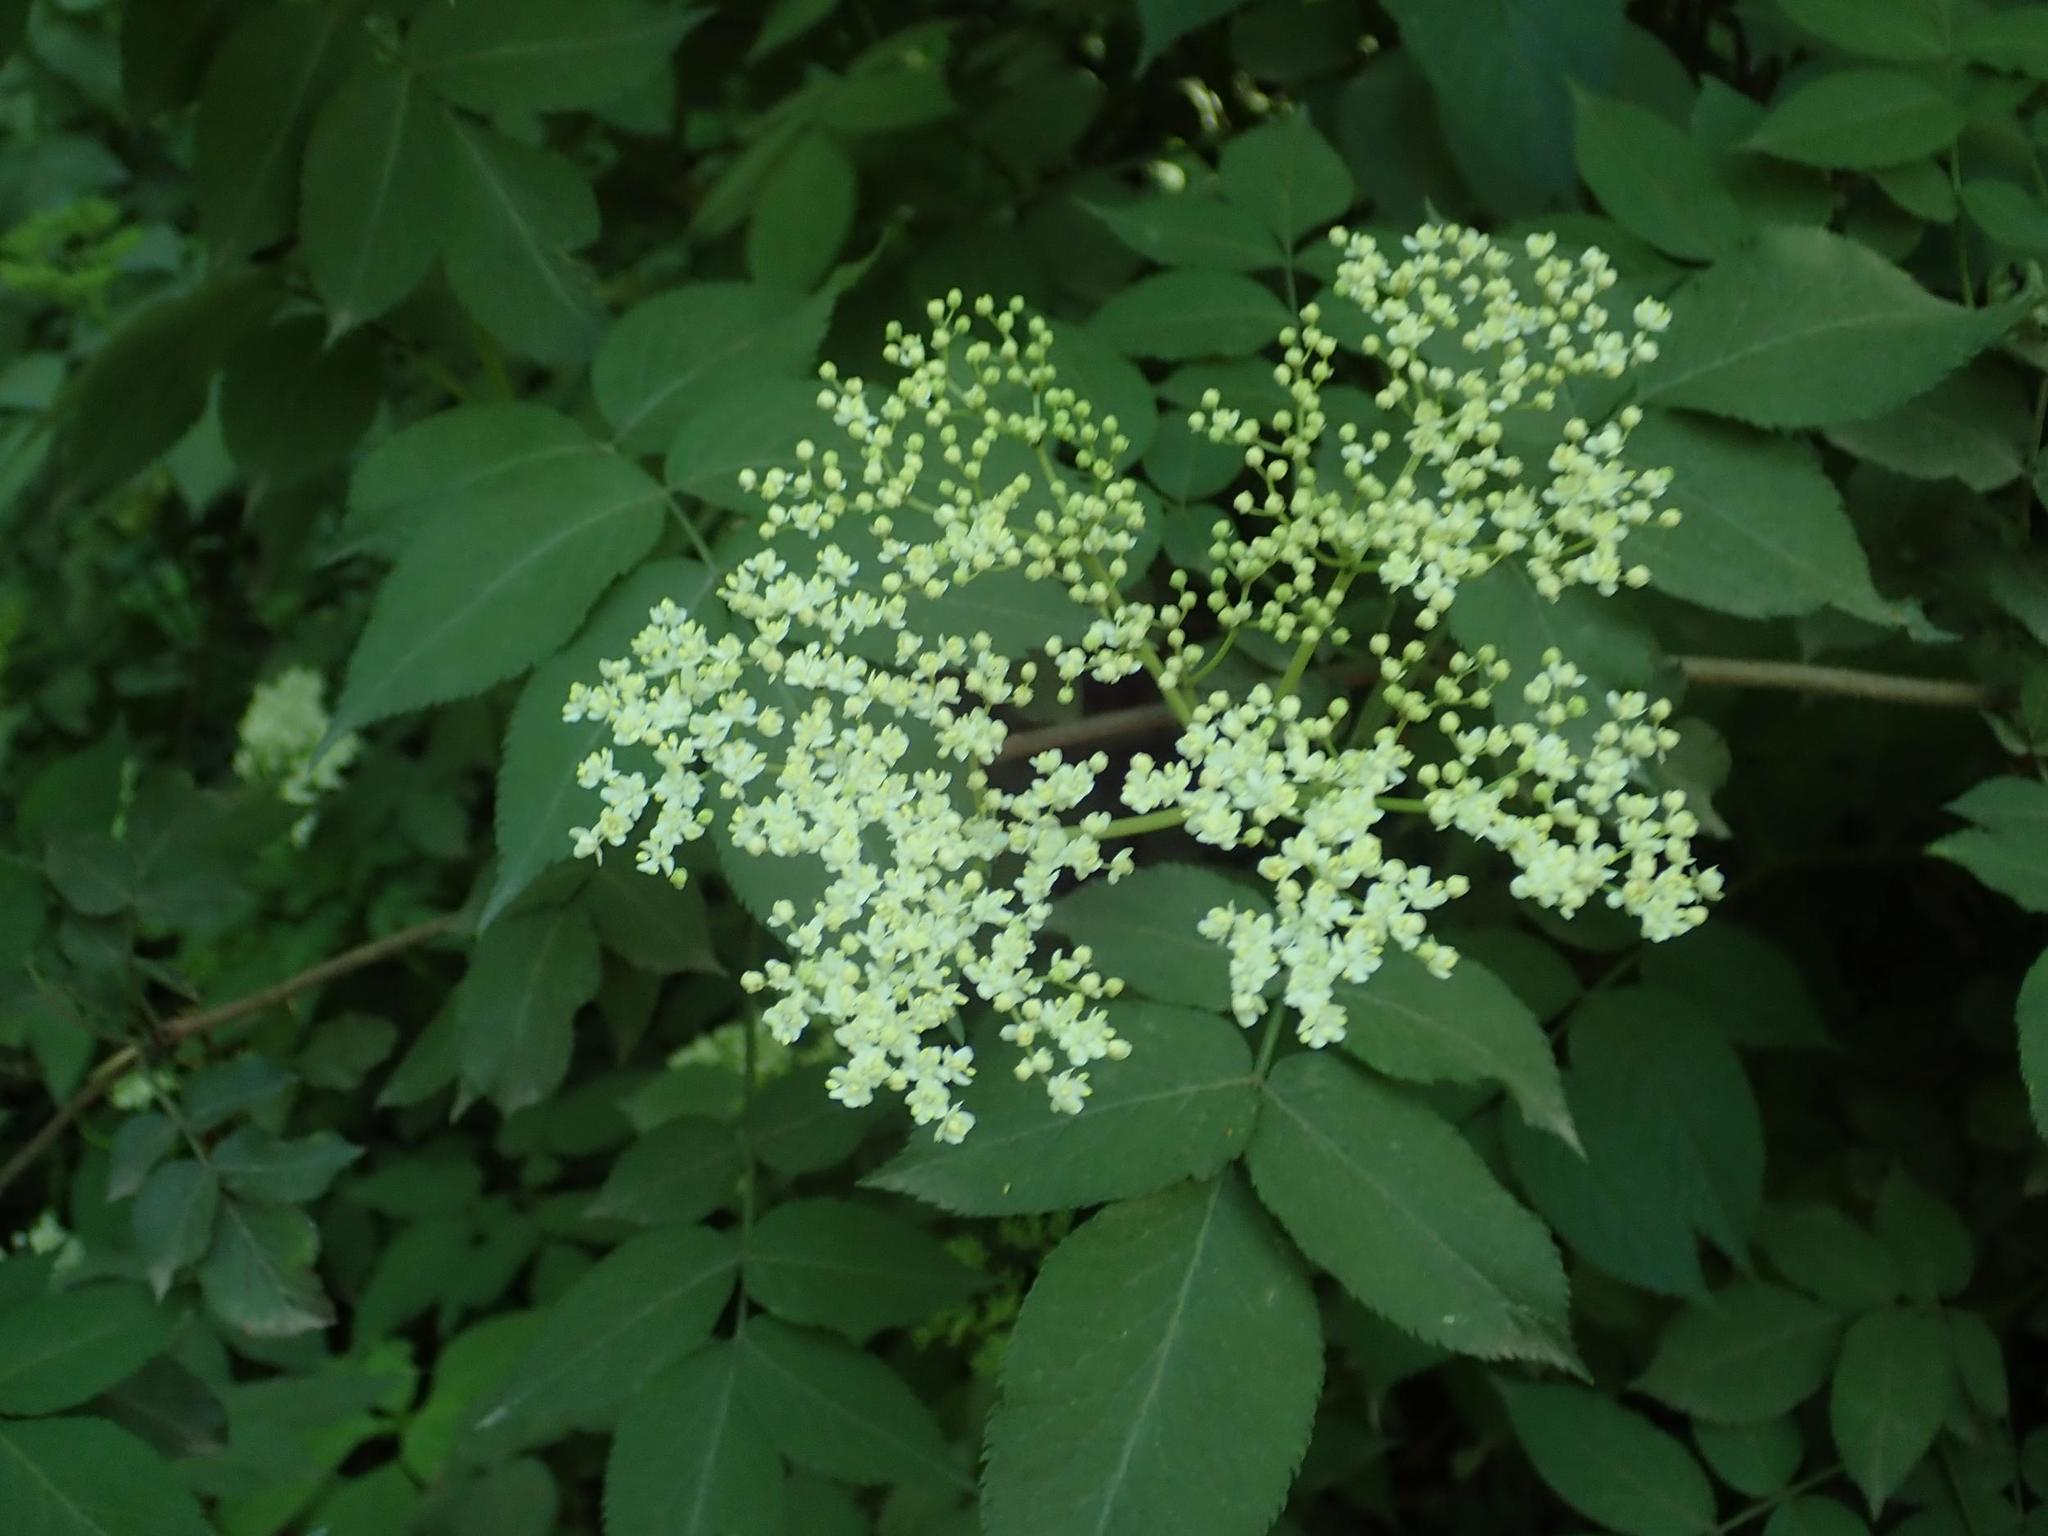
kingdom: Plantae
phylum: Tracheophyta
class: Magnoliopsida
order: Dipsacales
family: Viburnaceae
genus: Sambucus
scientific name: Sambucus nigra
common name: Elder
